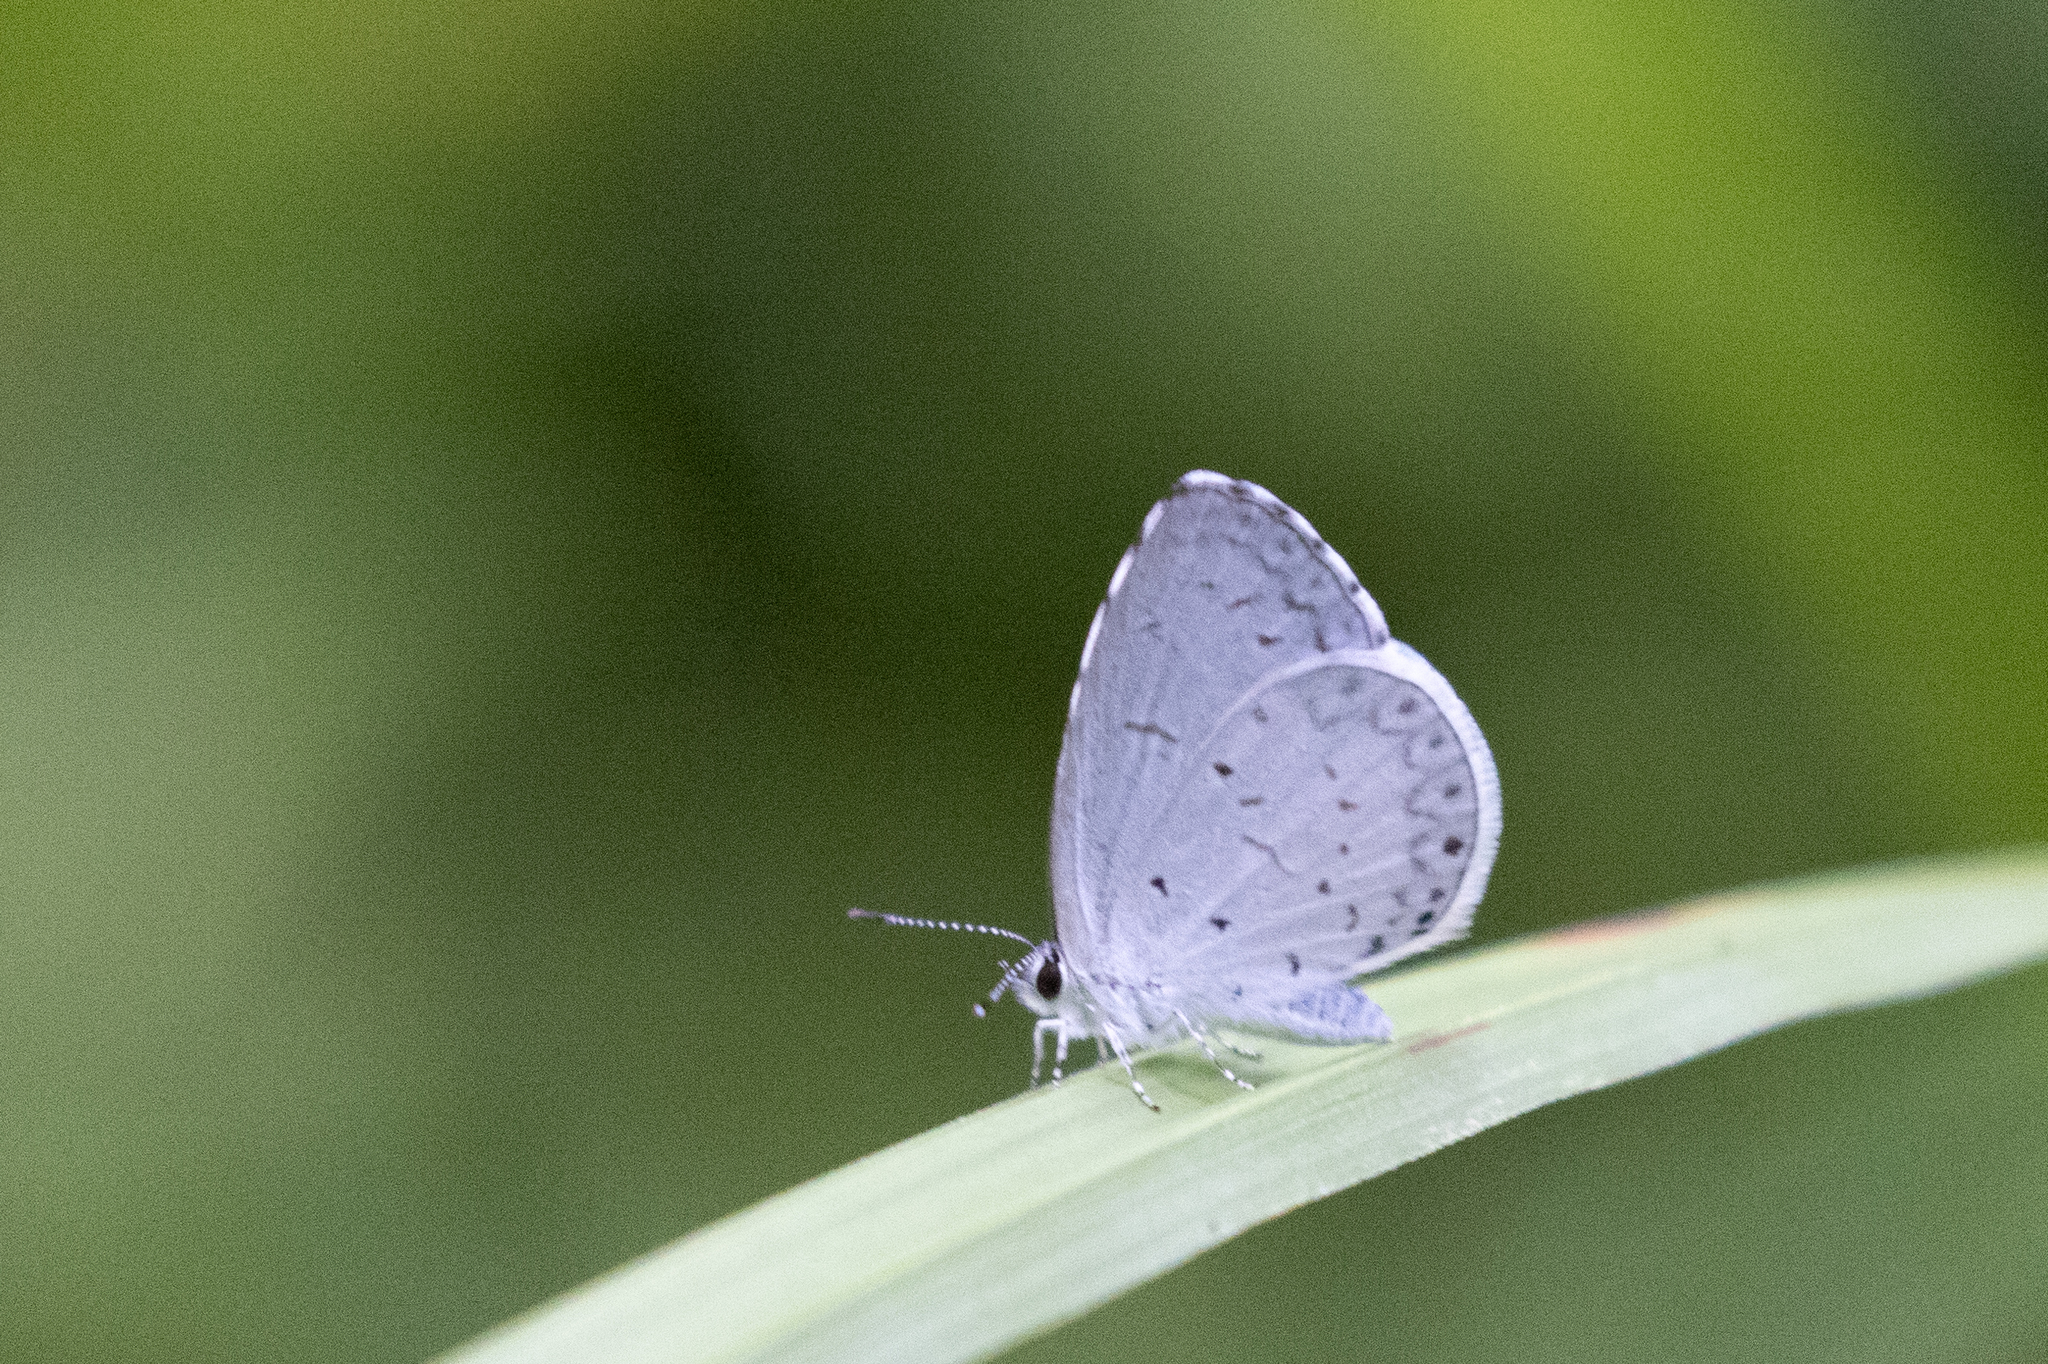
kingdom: Animalia
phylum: Arthropoda
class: Insecta
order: Lepidoptera
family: Lycaenidae
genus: Cyaniris
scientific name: Cyaniris neglecta
